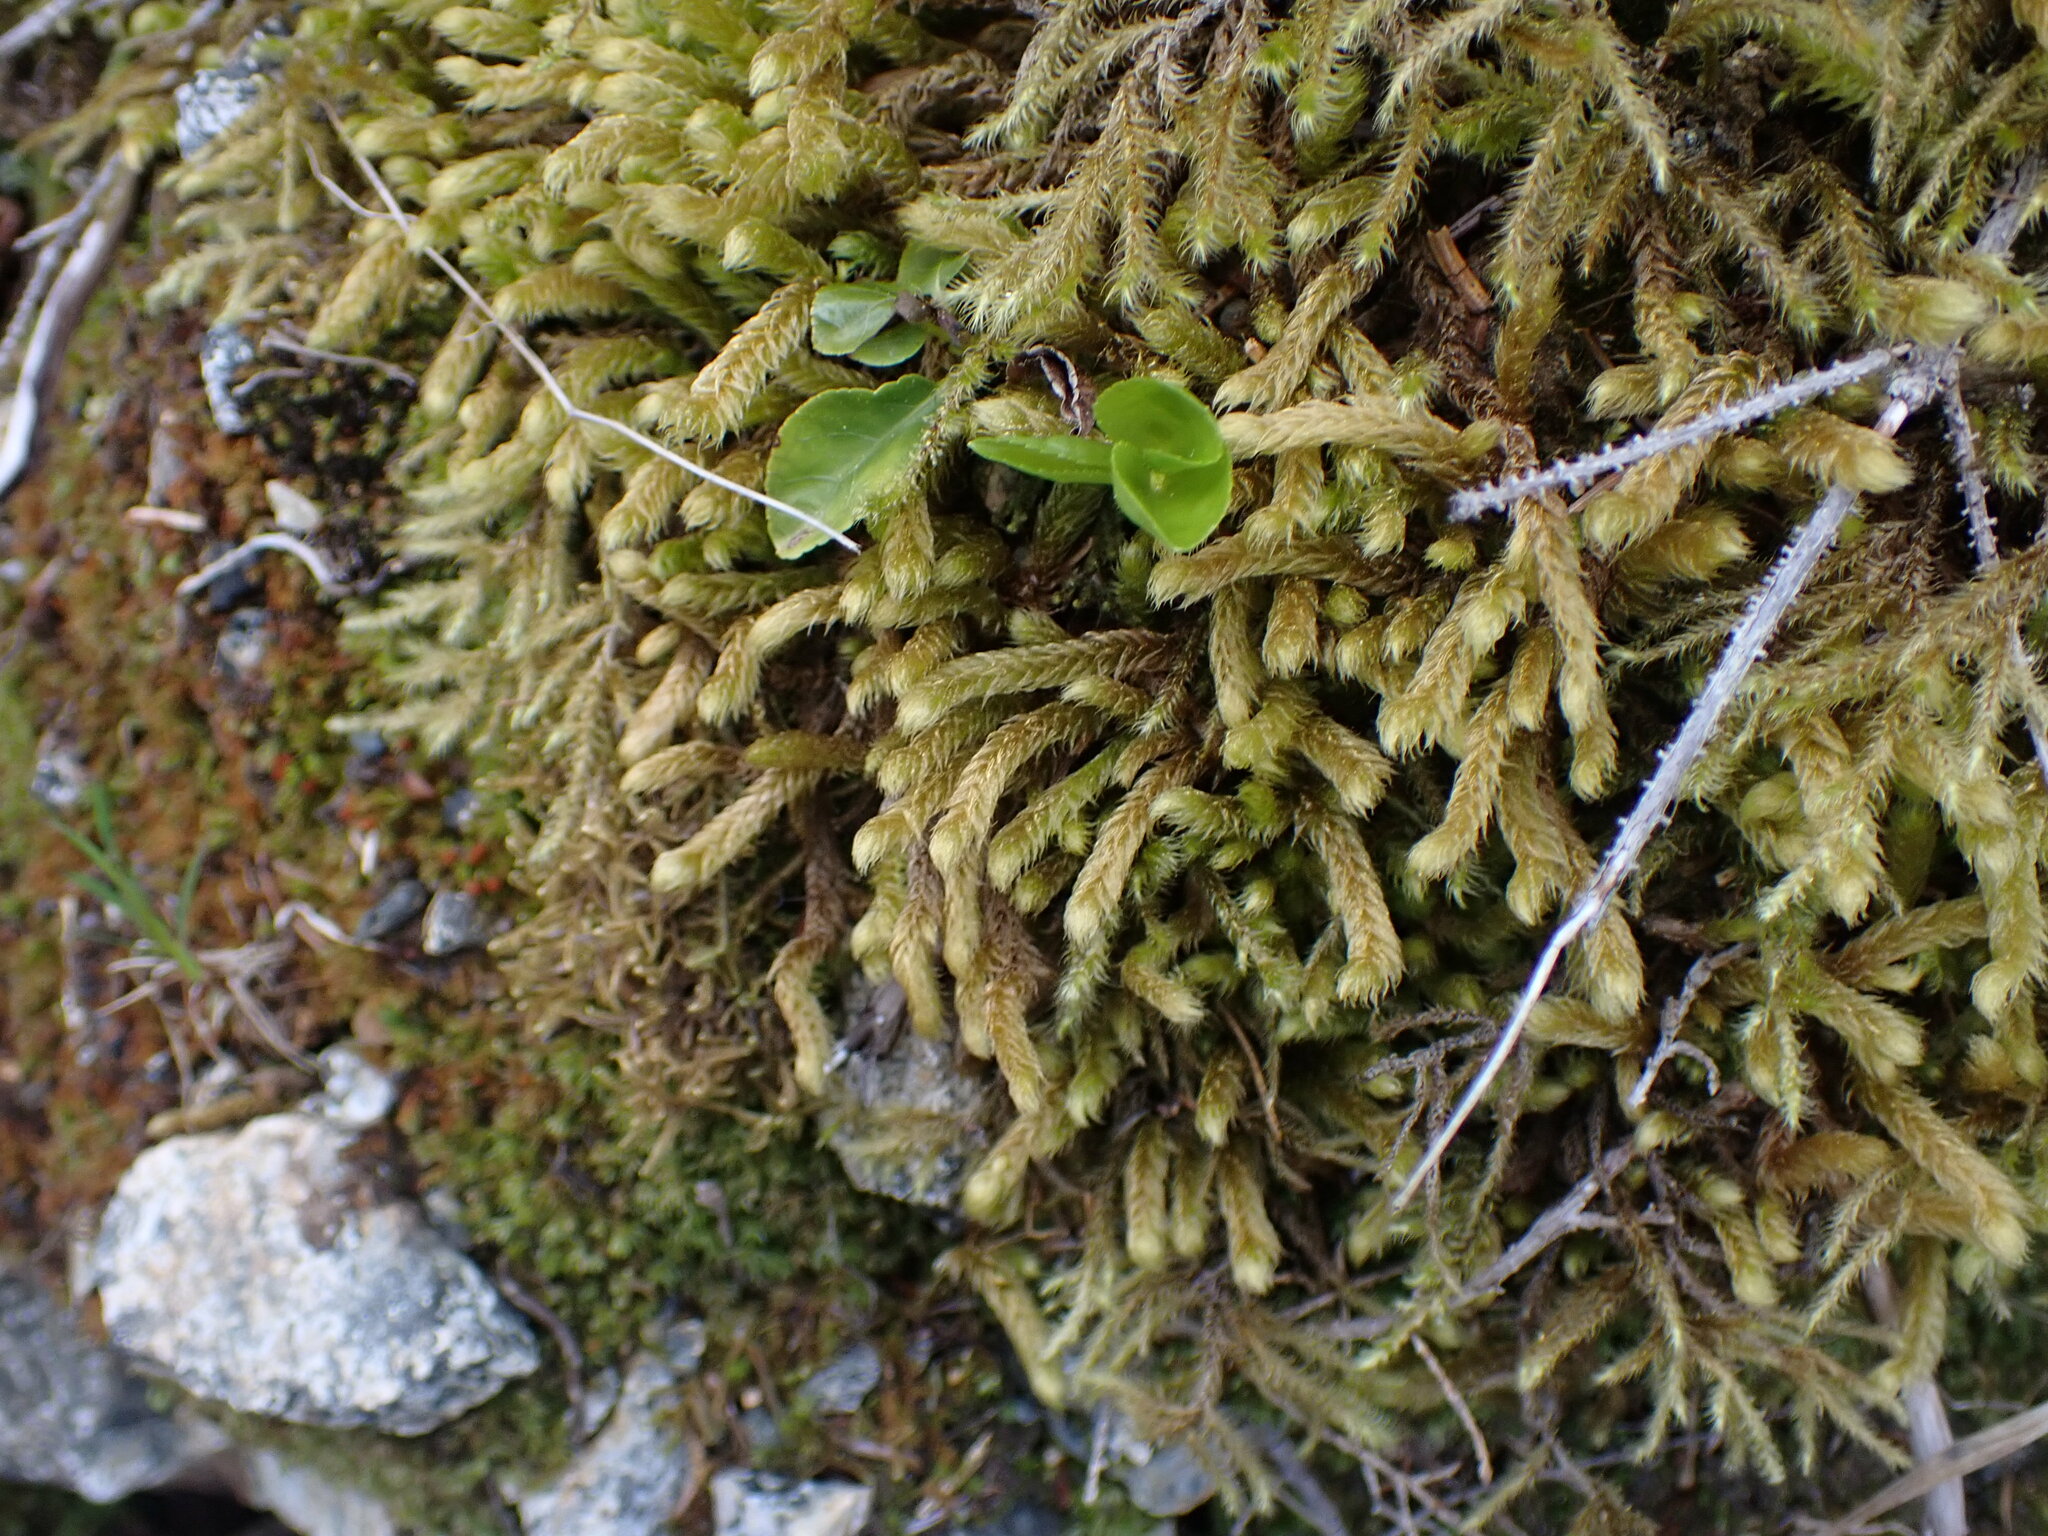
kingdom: Plantae
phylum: Bryophyta
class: Bryopsida
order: Hypnales
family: Hylocomiaceae
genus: Rhytidiopsis
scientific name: Rhytidiopsis robusta
